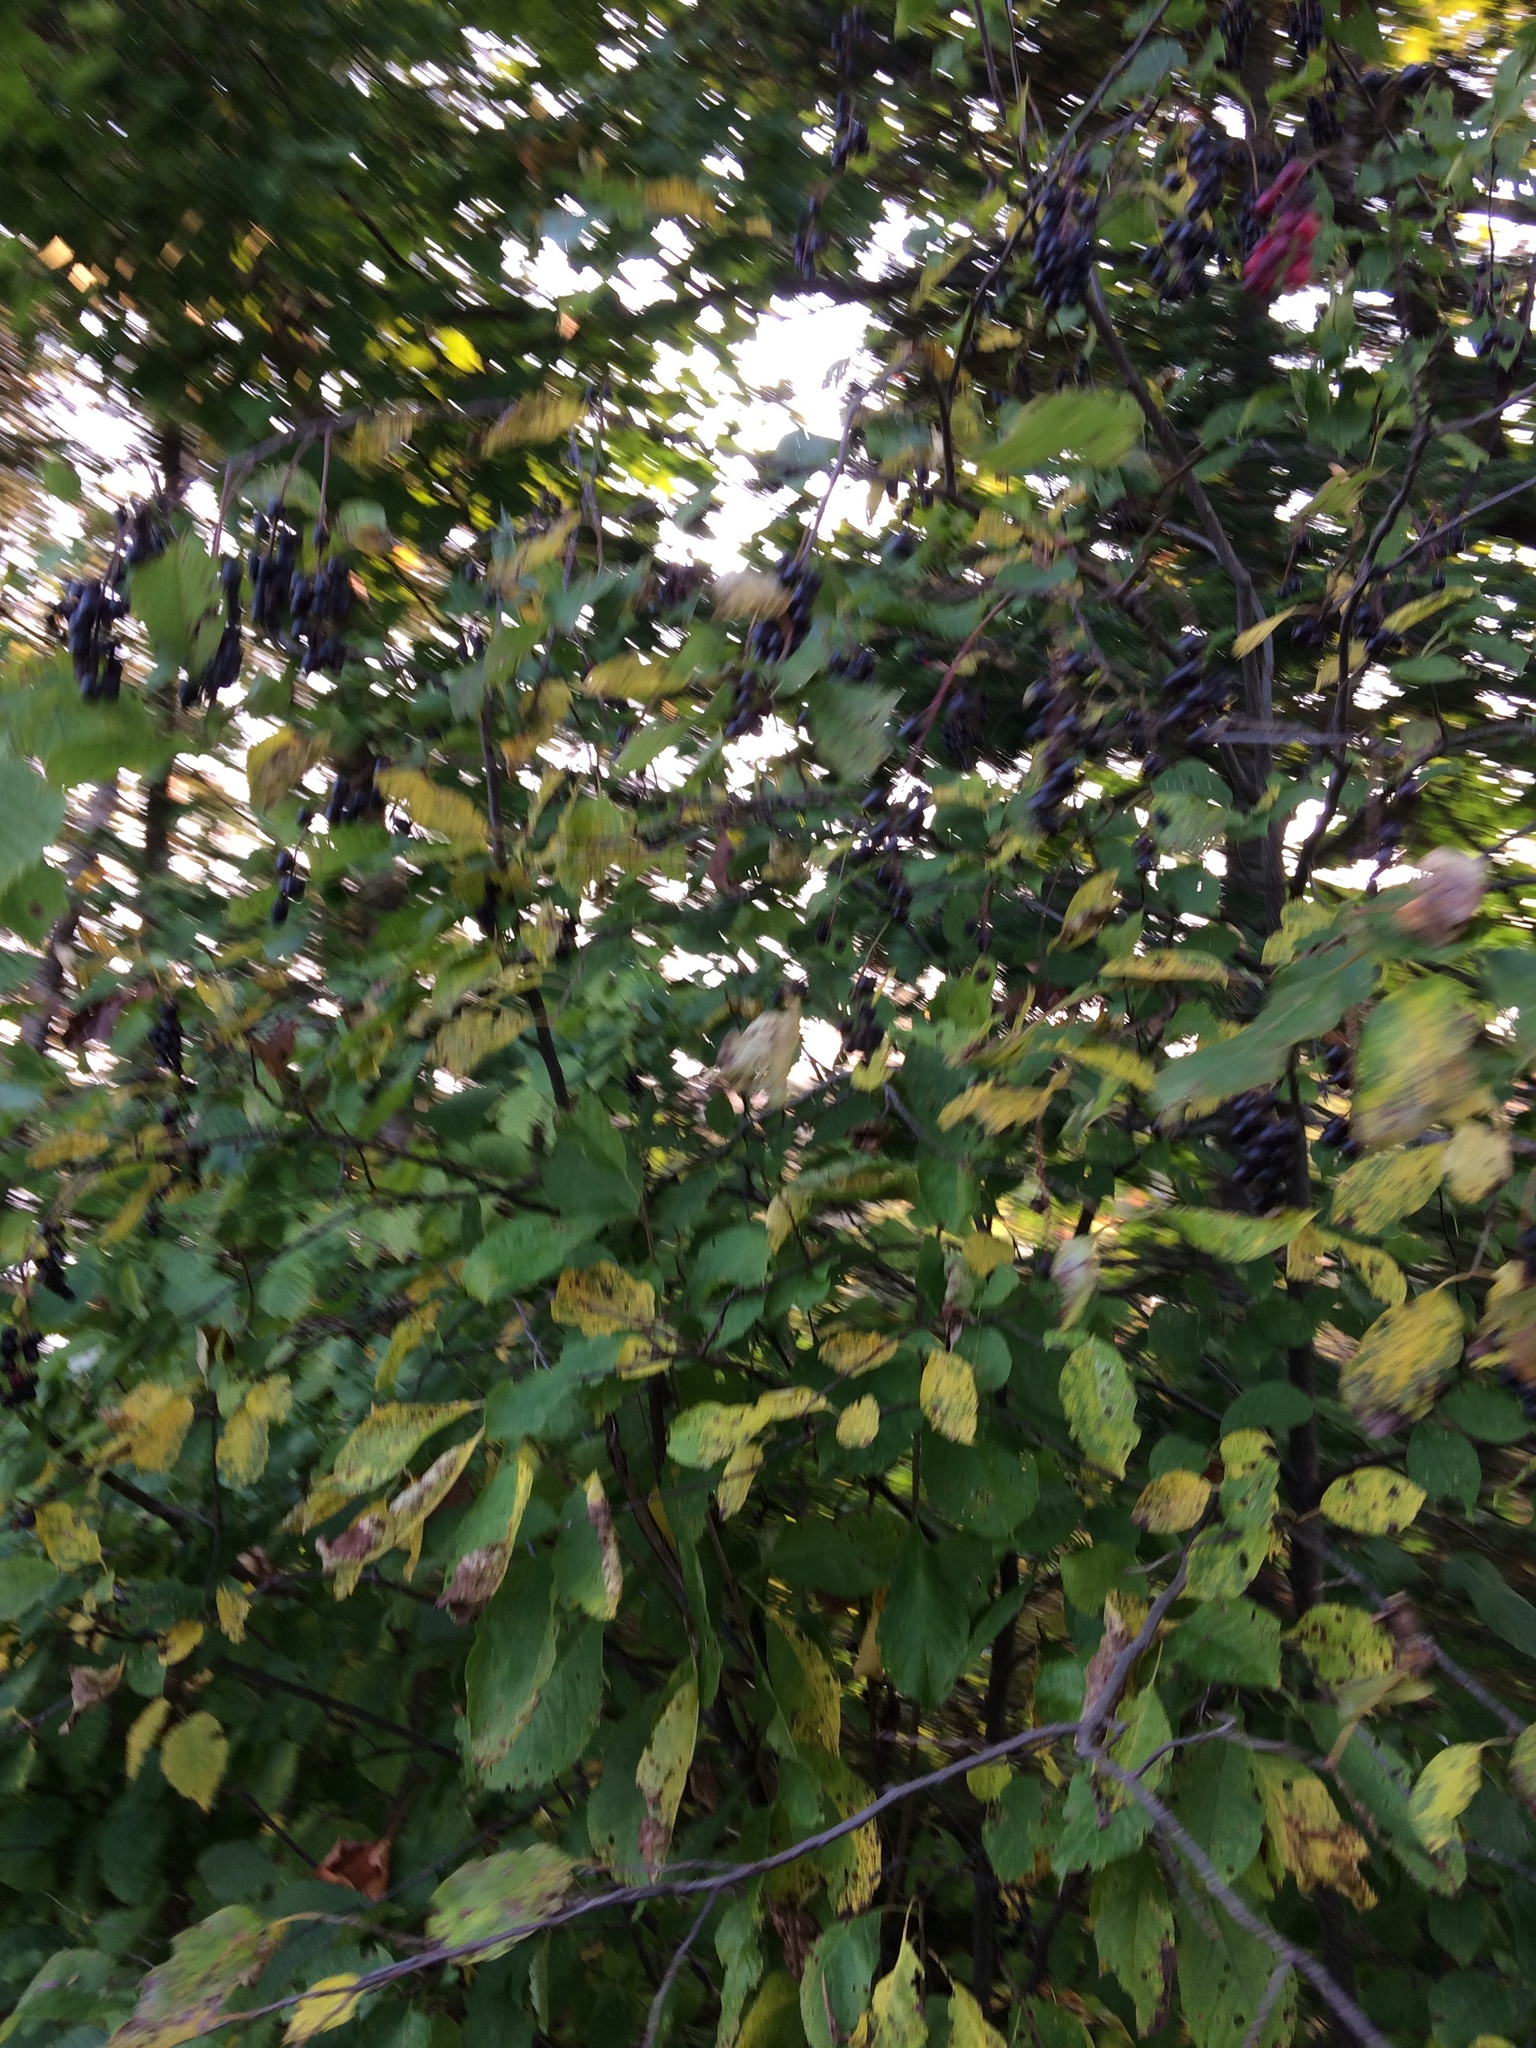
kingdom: Plantae
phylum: Tracheophyta
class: Magnoliopsida
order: Rosales
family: Rosaceae
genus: Prunus
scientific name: Prunus virginiana
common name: Chokecherry
